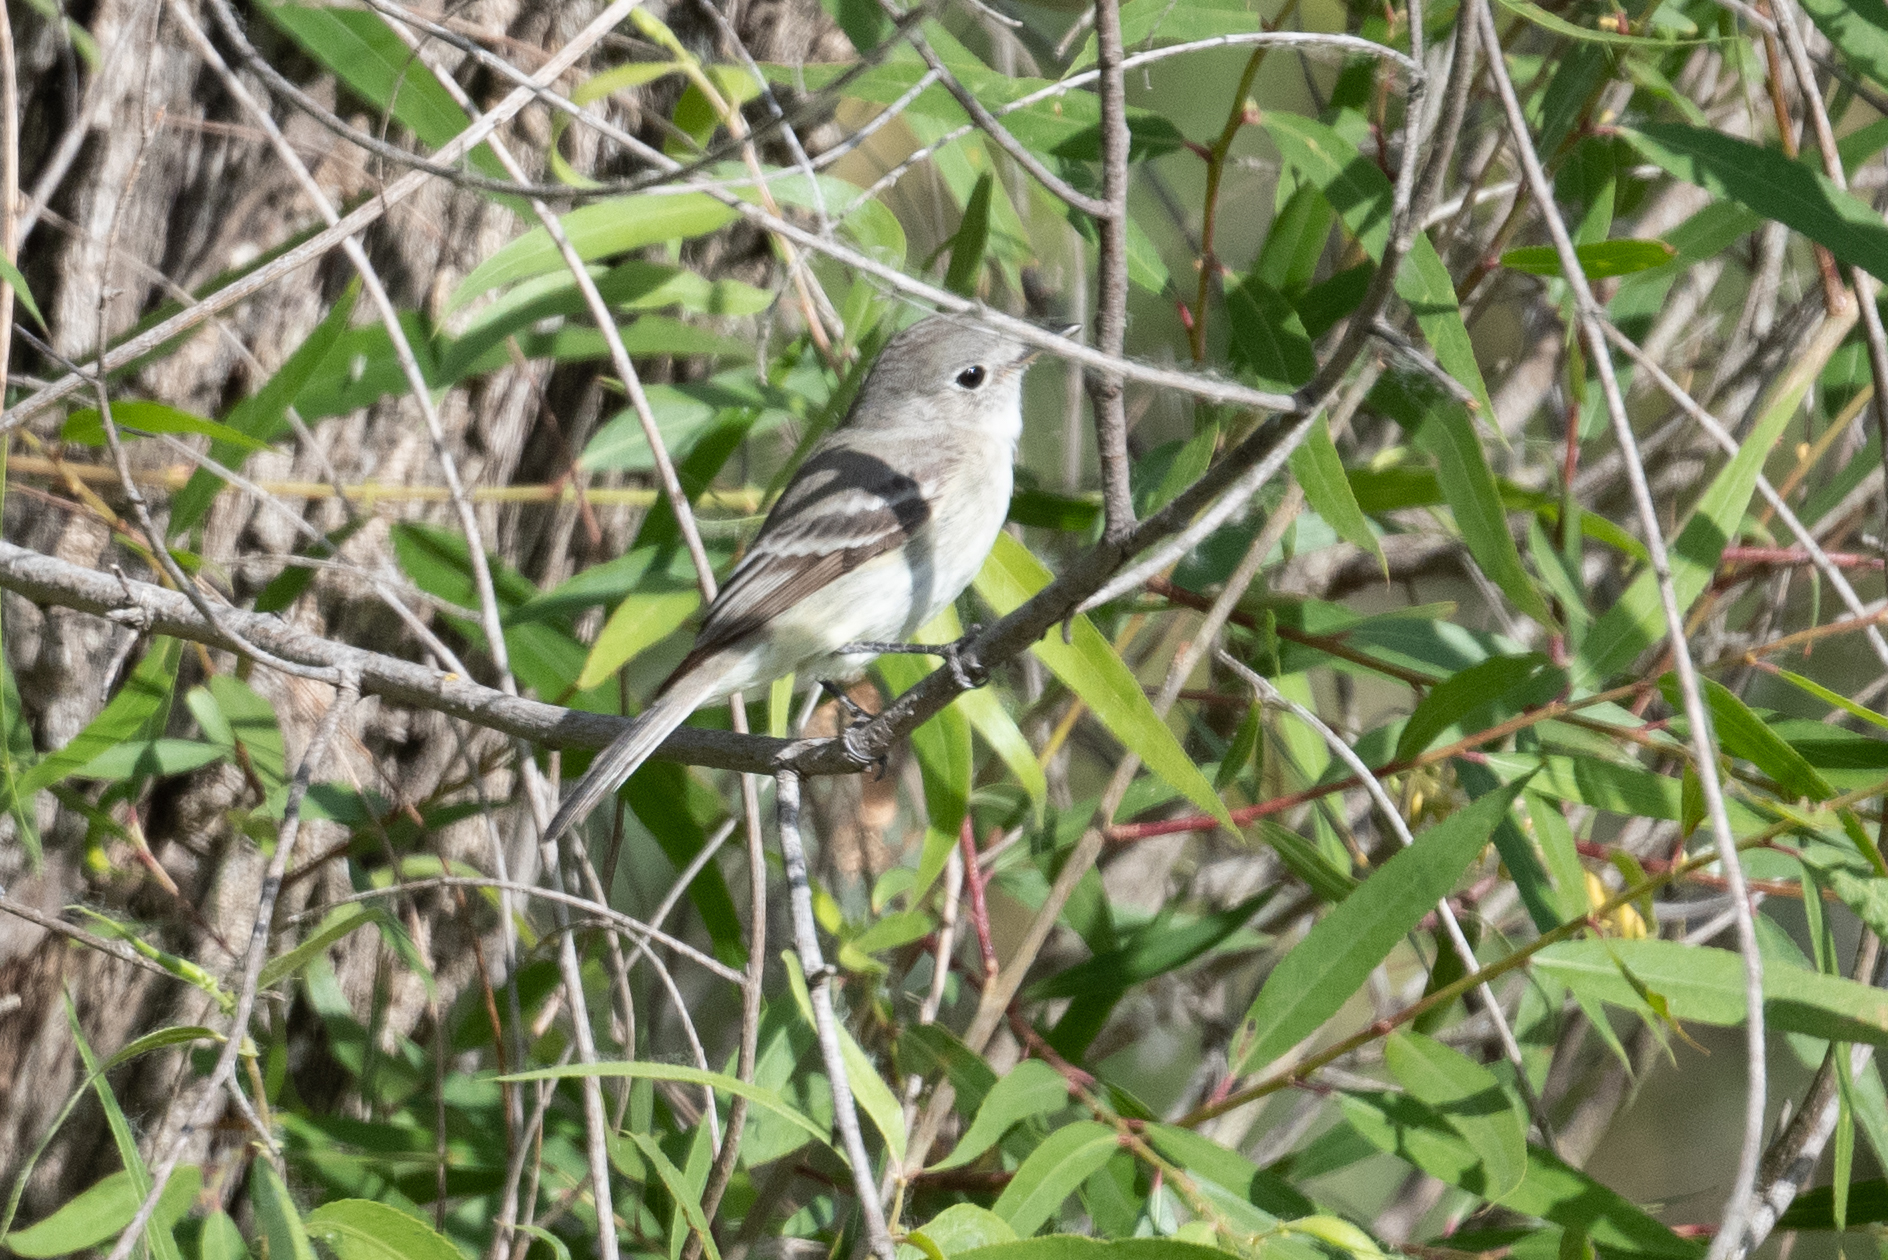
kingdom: Animalia
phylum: Chordata
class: Aves
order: Passeriformes
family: Tyrannidae
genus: Empidonax
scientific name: Empidonax wrightii
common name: Gray flycatcher
